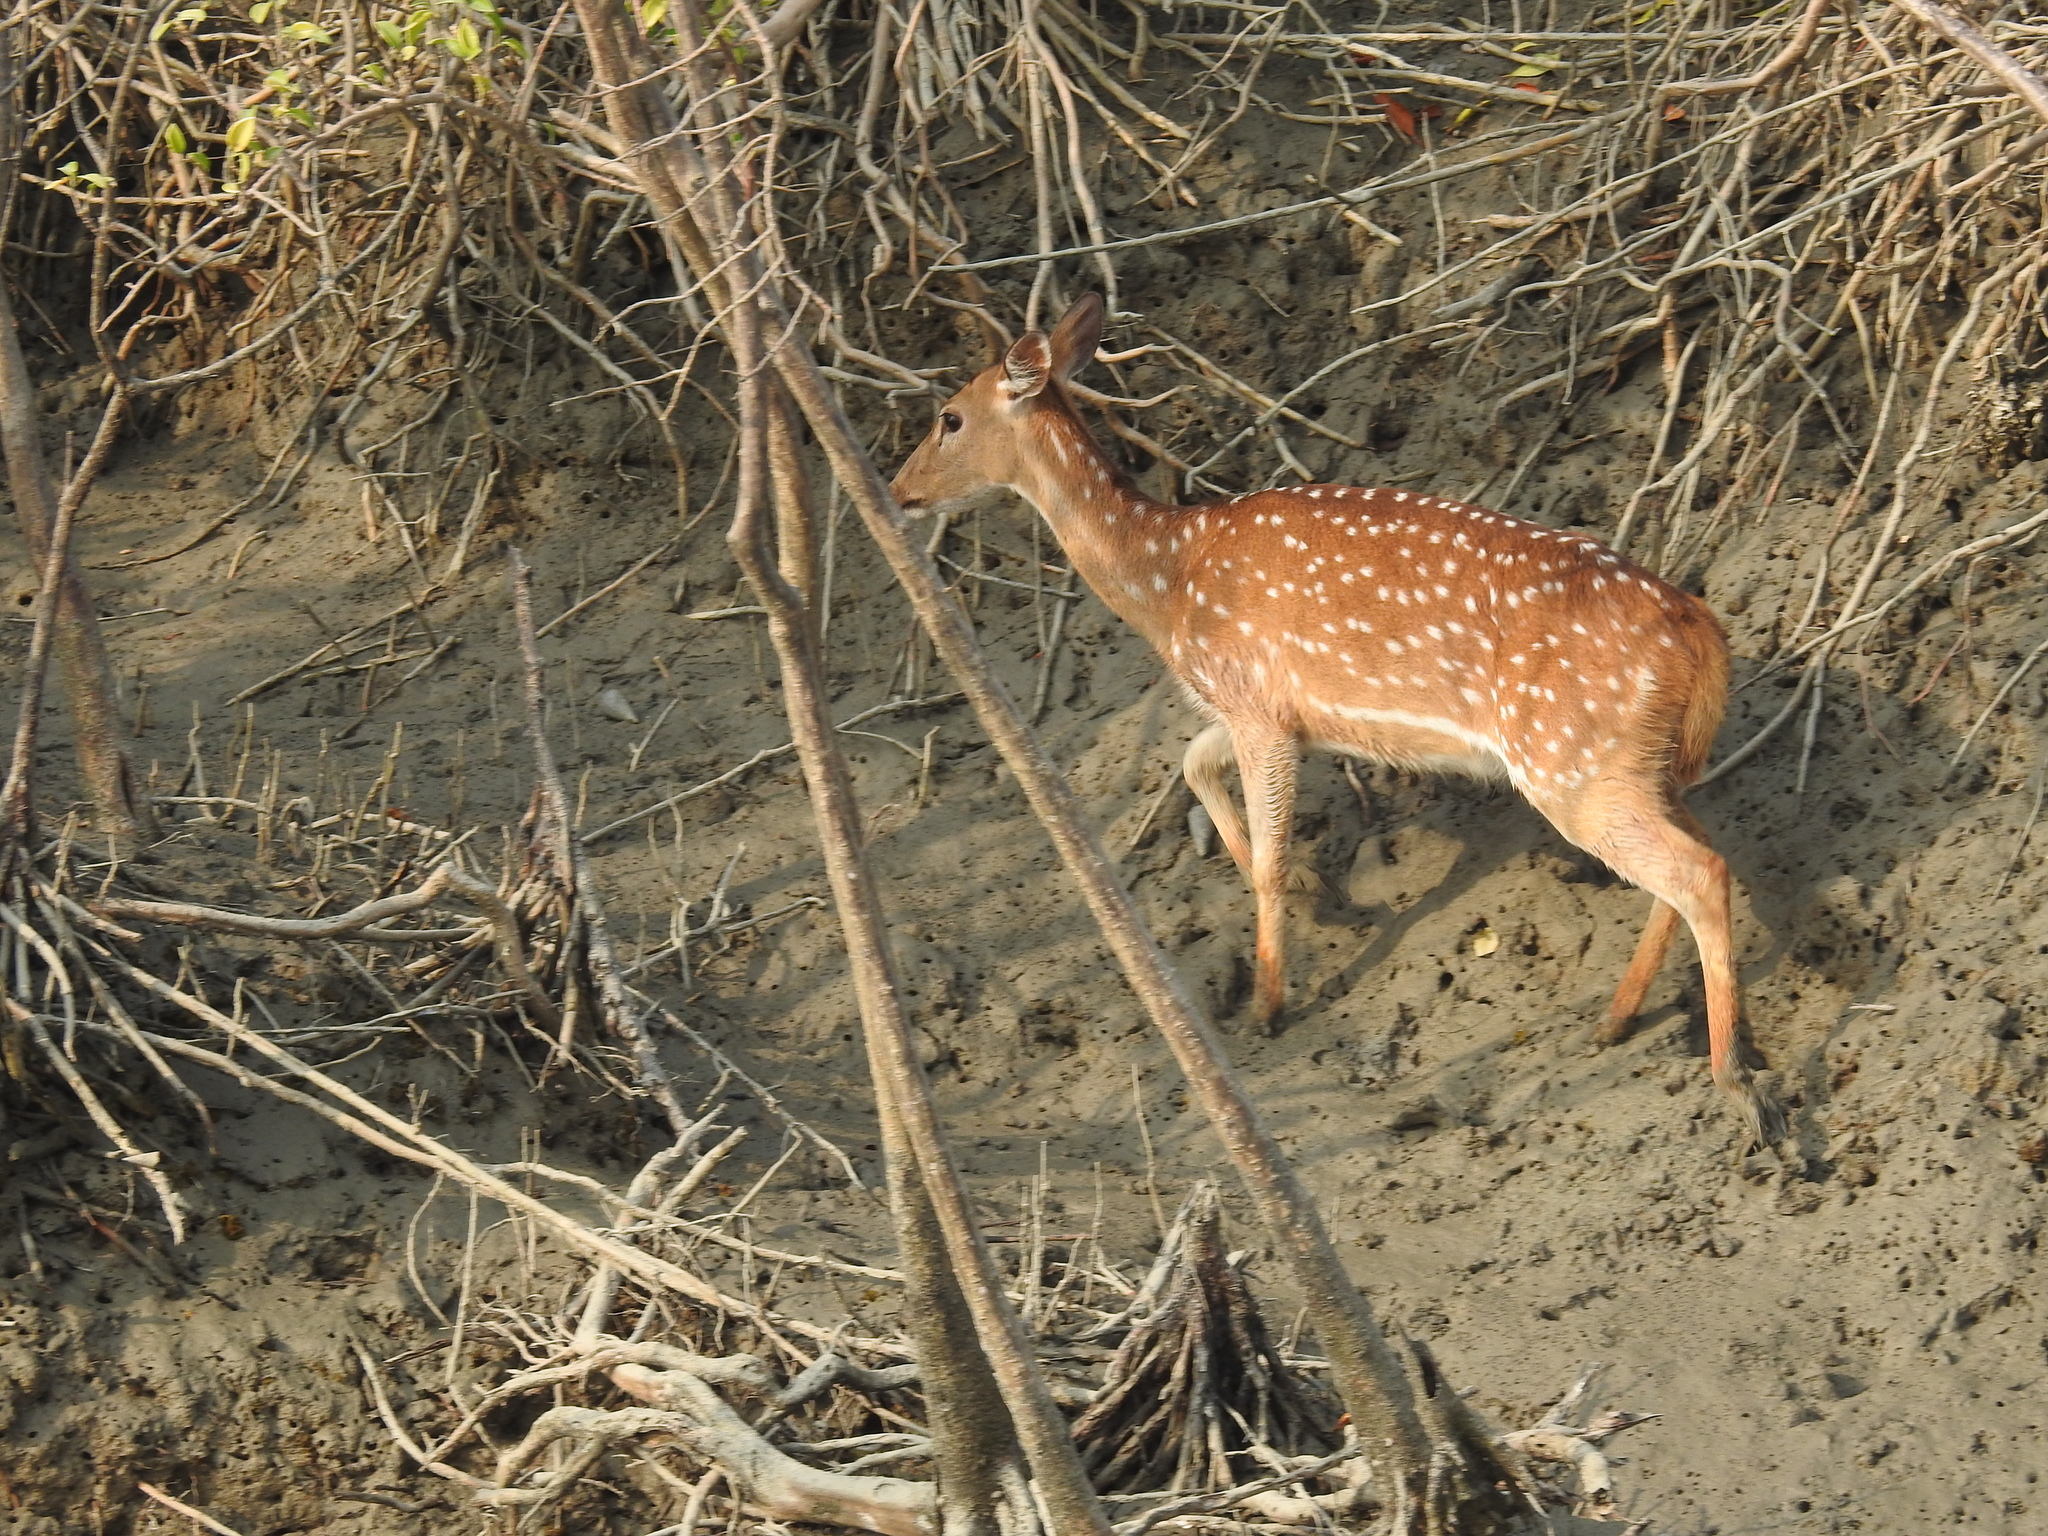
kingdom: Animalia
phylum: Chordata
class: Mammalia
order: Artiodactyla
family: Cervidae
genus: Axis
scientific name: Axis axis
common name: Chital
